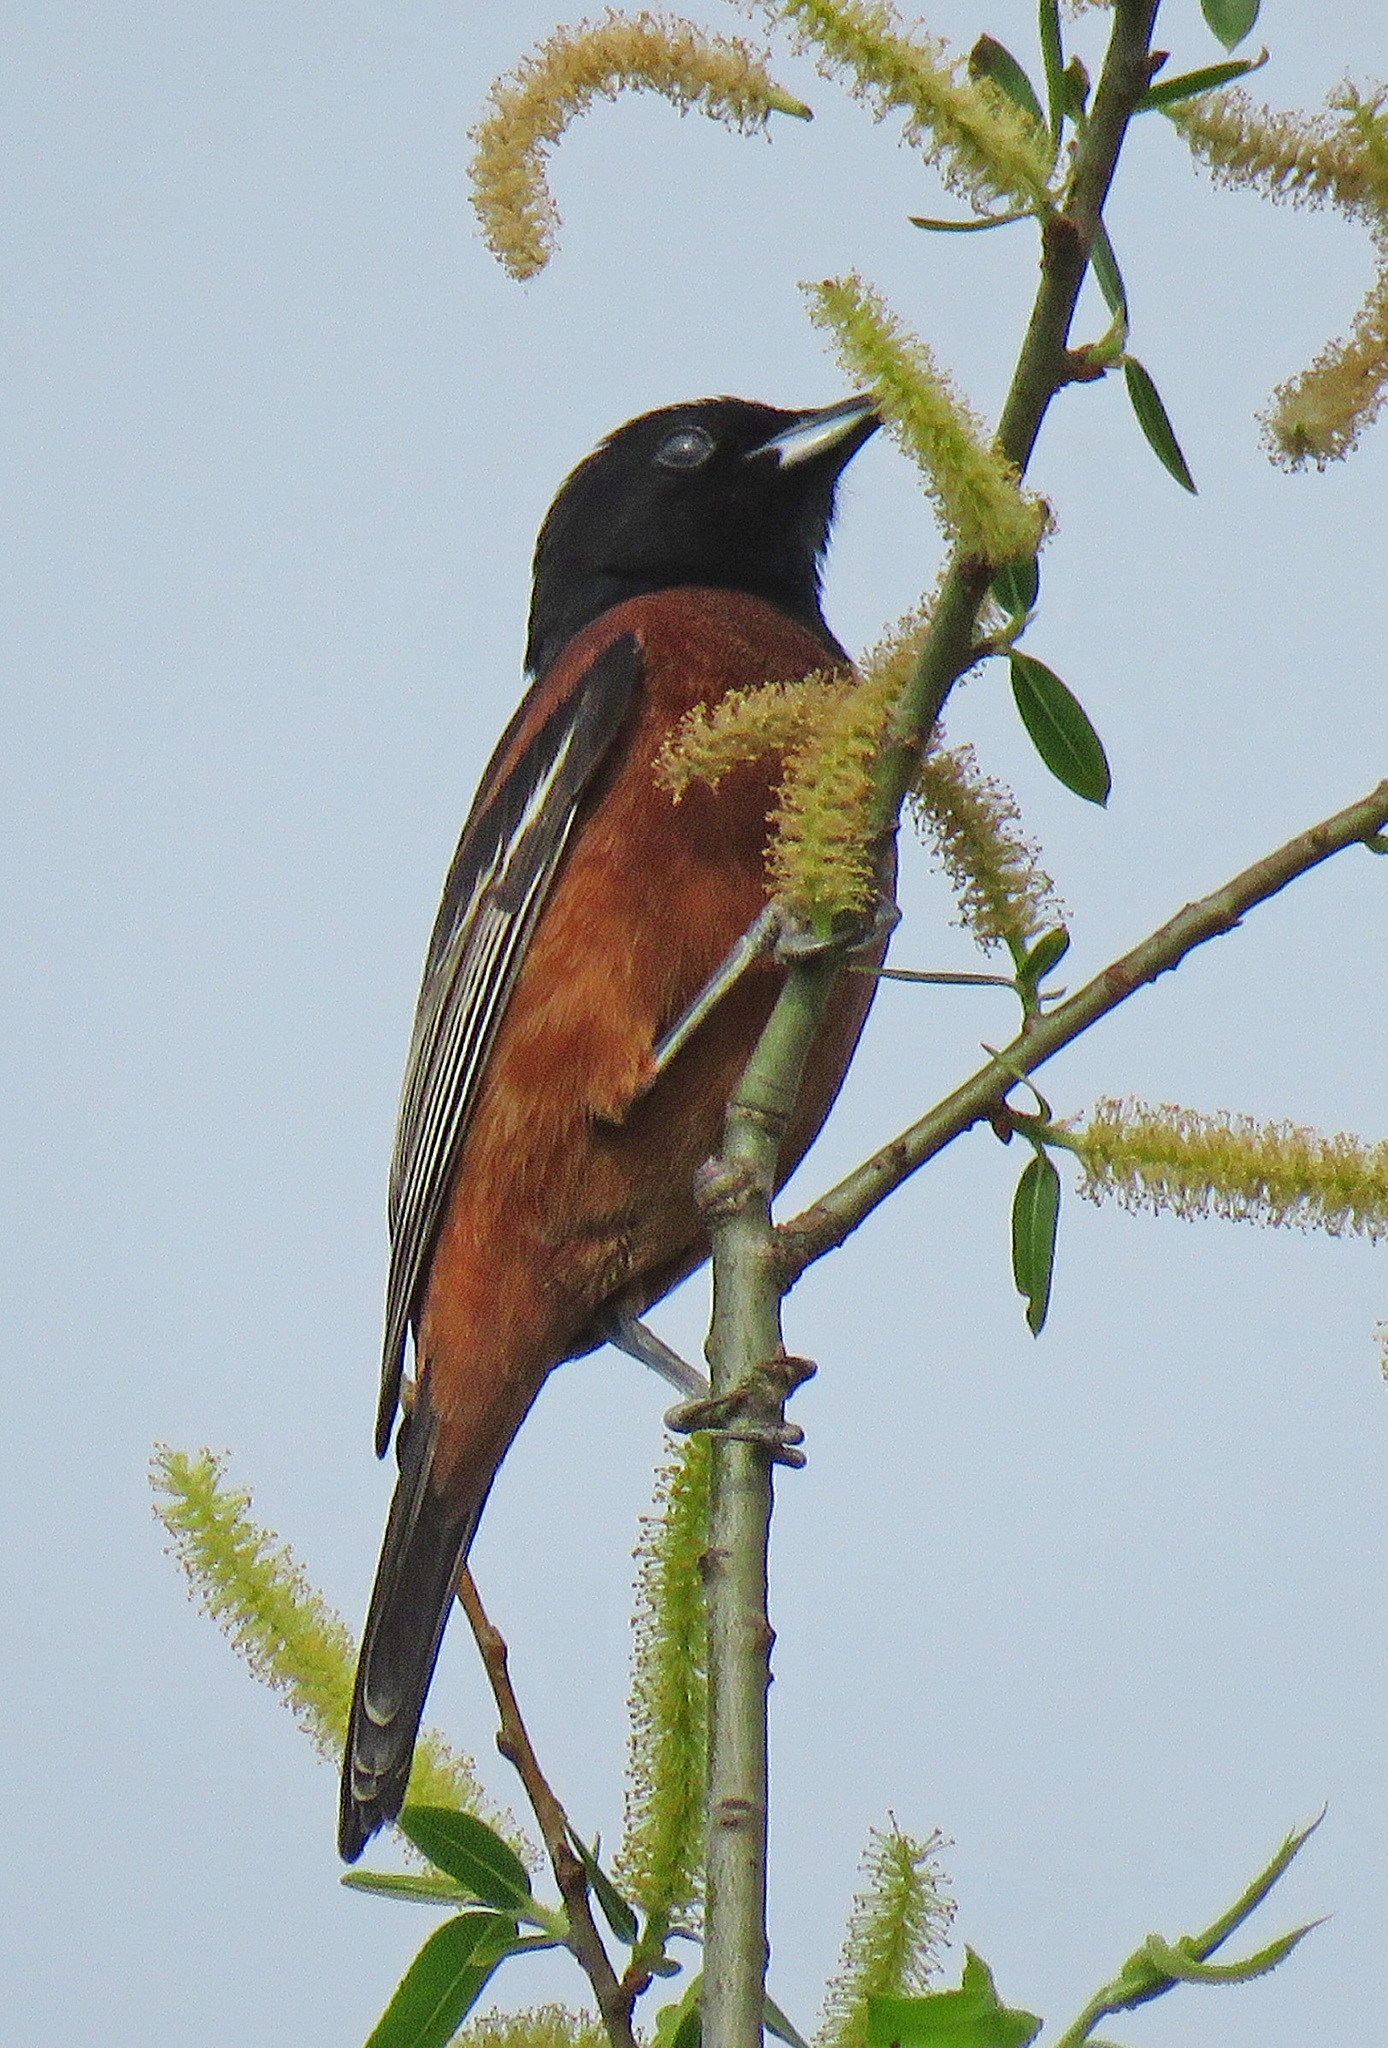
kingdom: Animalia
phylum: Chordata
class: Aves
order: Passeriformes
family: Icteridae
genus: Icterus
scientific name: Icterus spurius
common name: Orchard oriole
